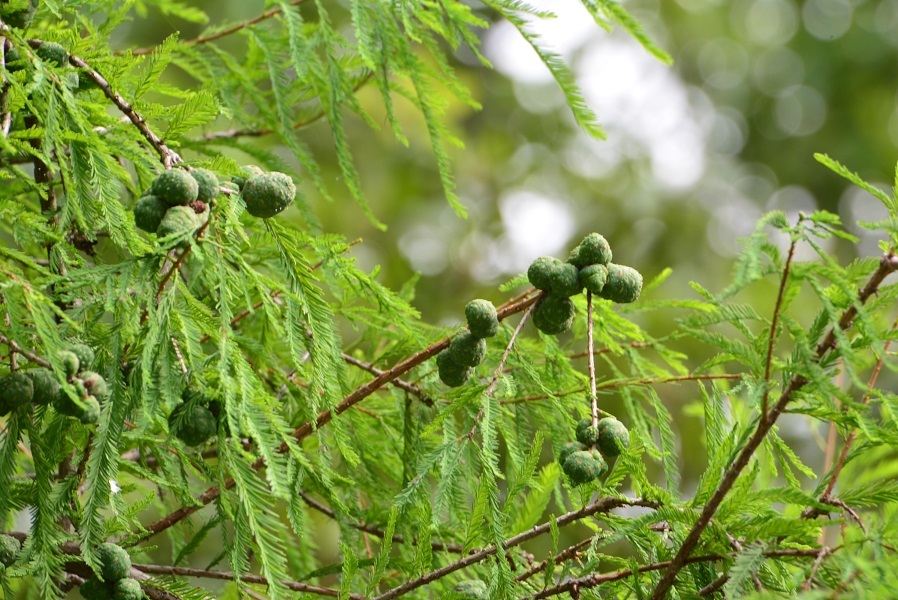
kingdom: Plantae
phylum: Tracheophyta
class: Pinopsida
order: Pinales
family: Cupressaceae
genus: Taxodium
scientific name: Taxodium mucronatum
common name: Montezume bald cypress
